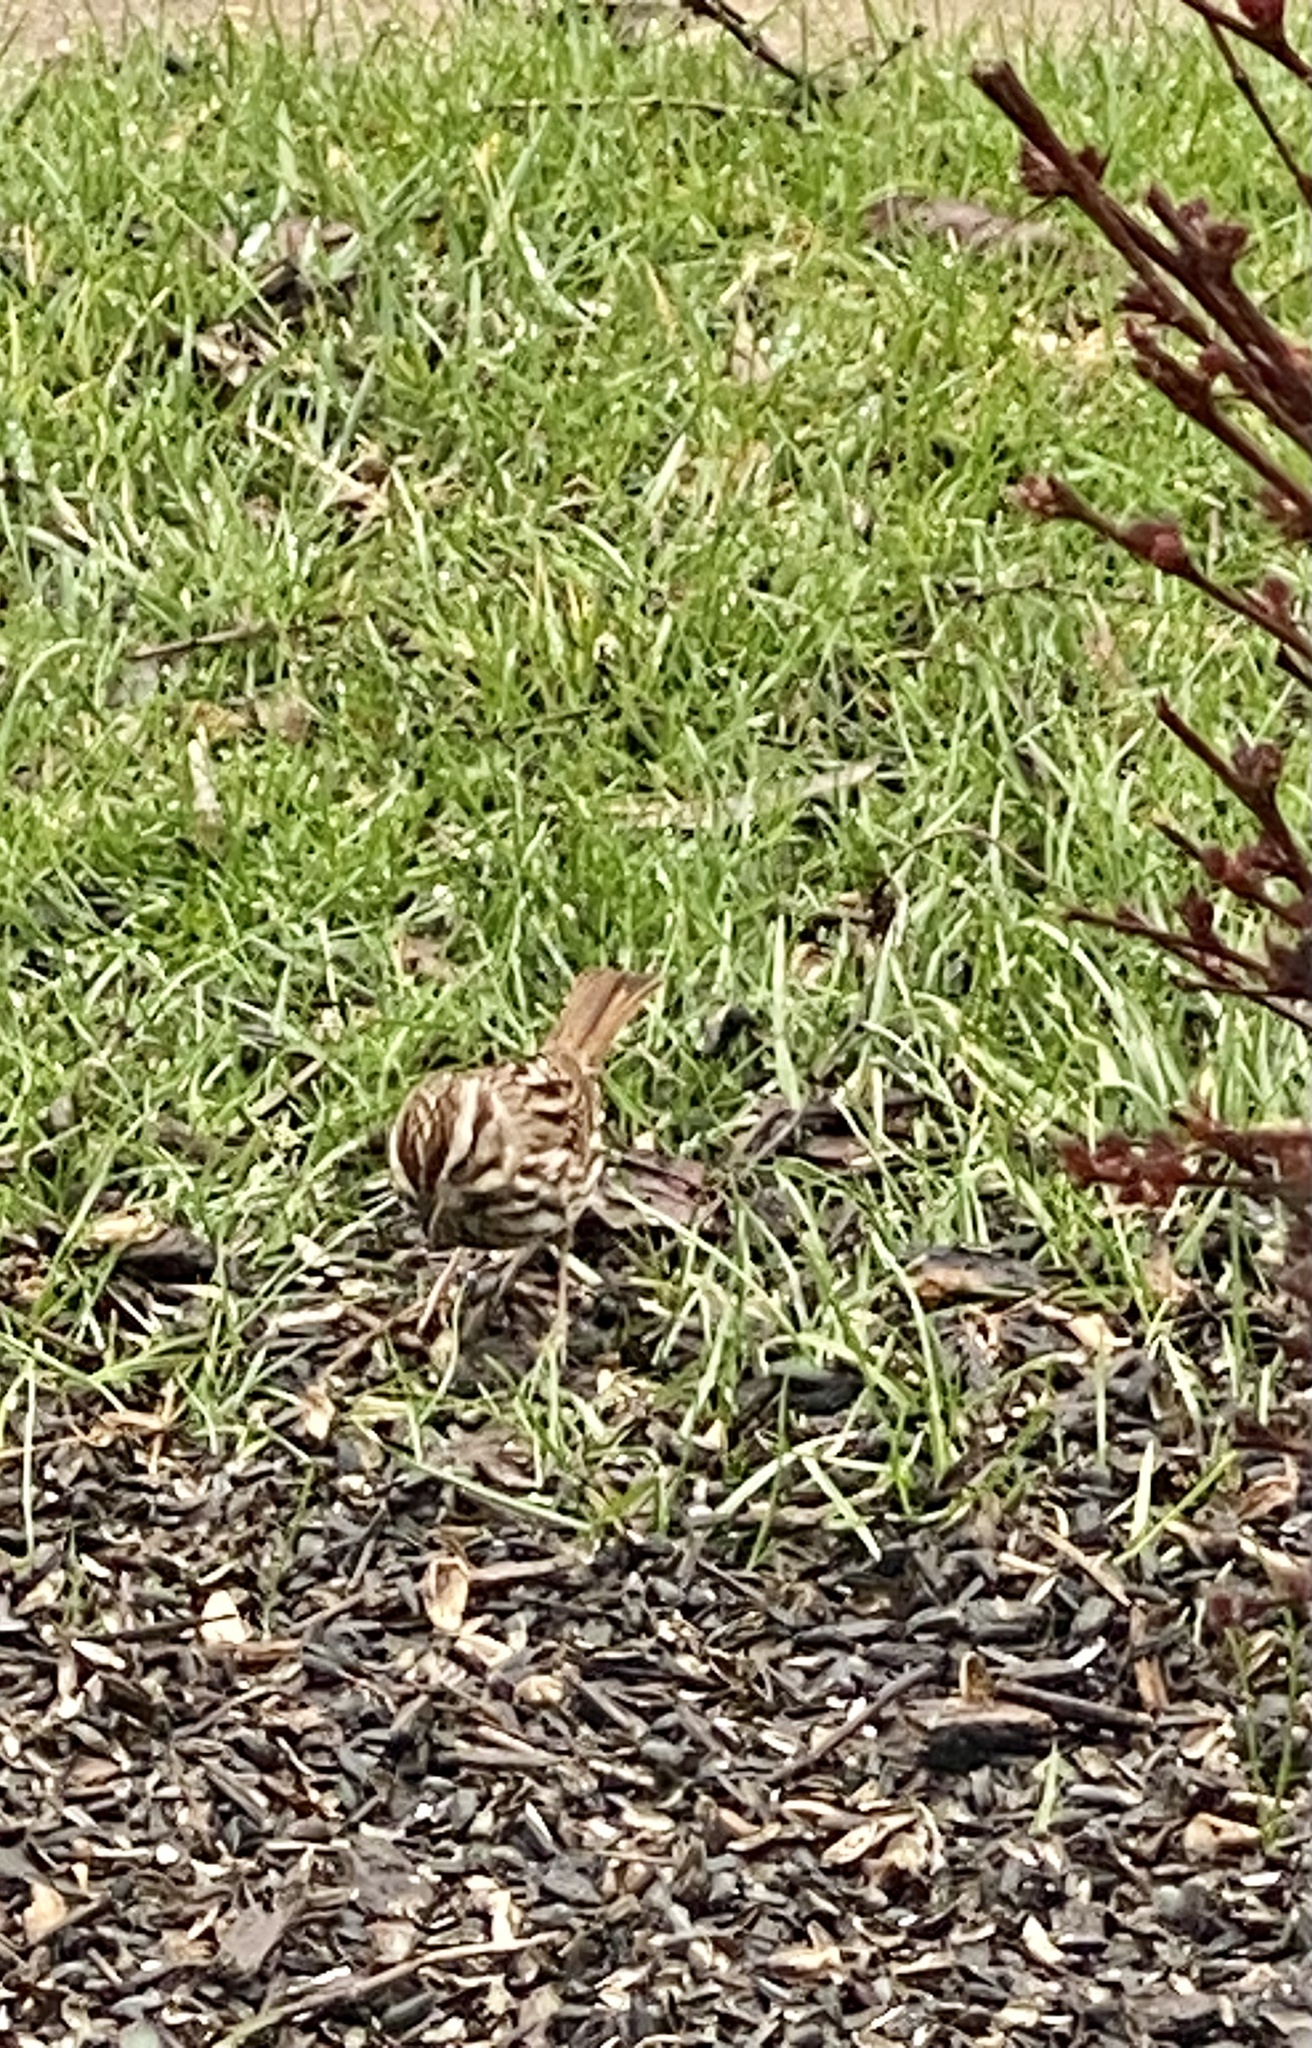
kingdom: Animalia
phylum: Chordata
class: Aves
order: Passeriformes
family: Passerellidae
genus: Melospiza
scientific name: Melospiza melodia
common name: Song sparrow
